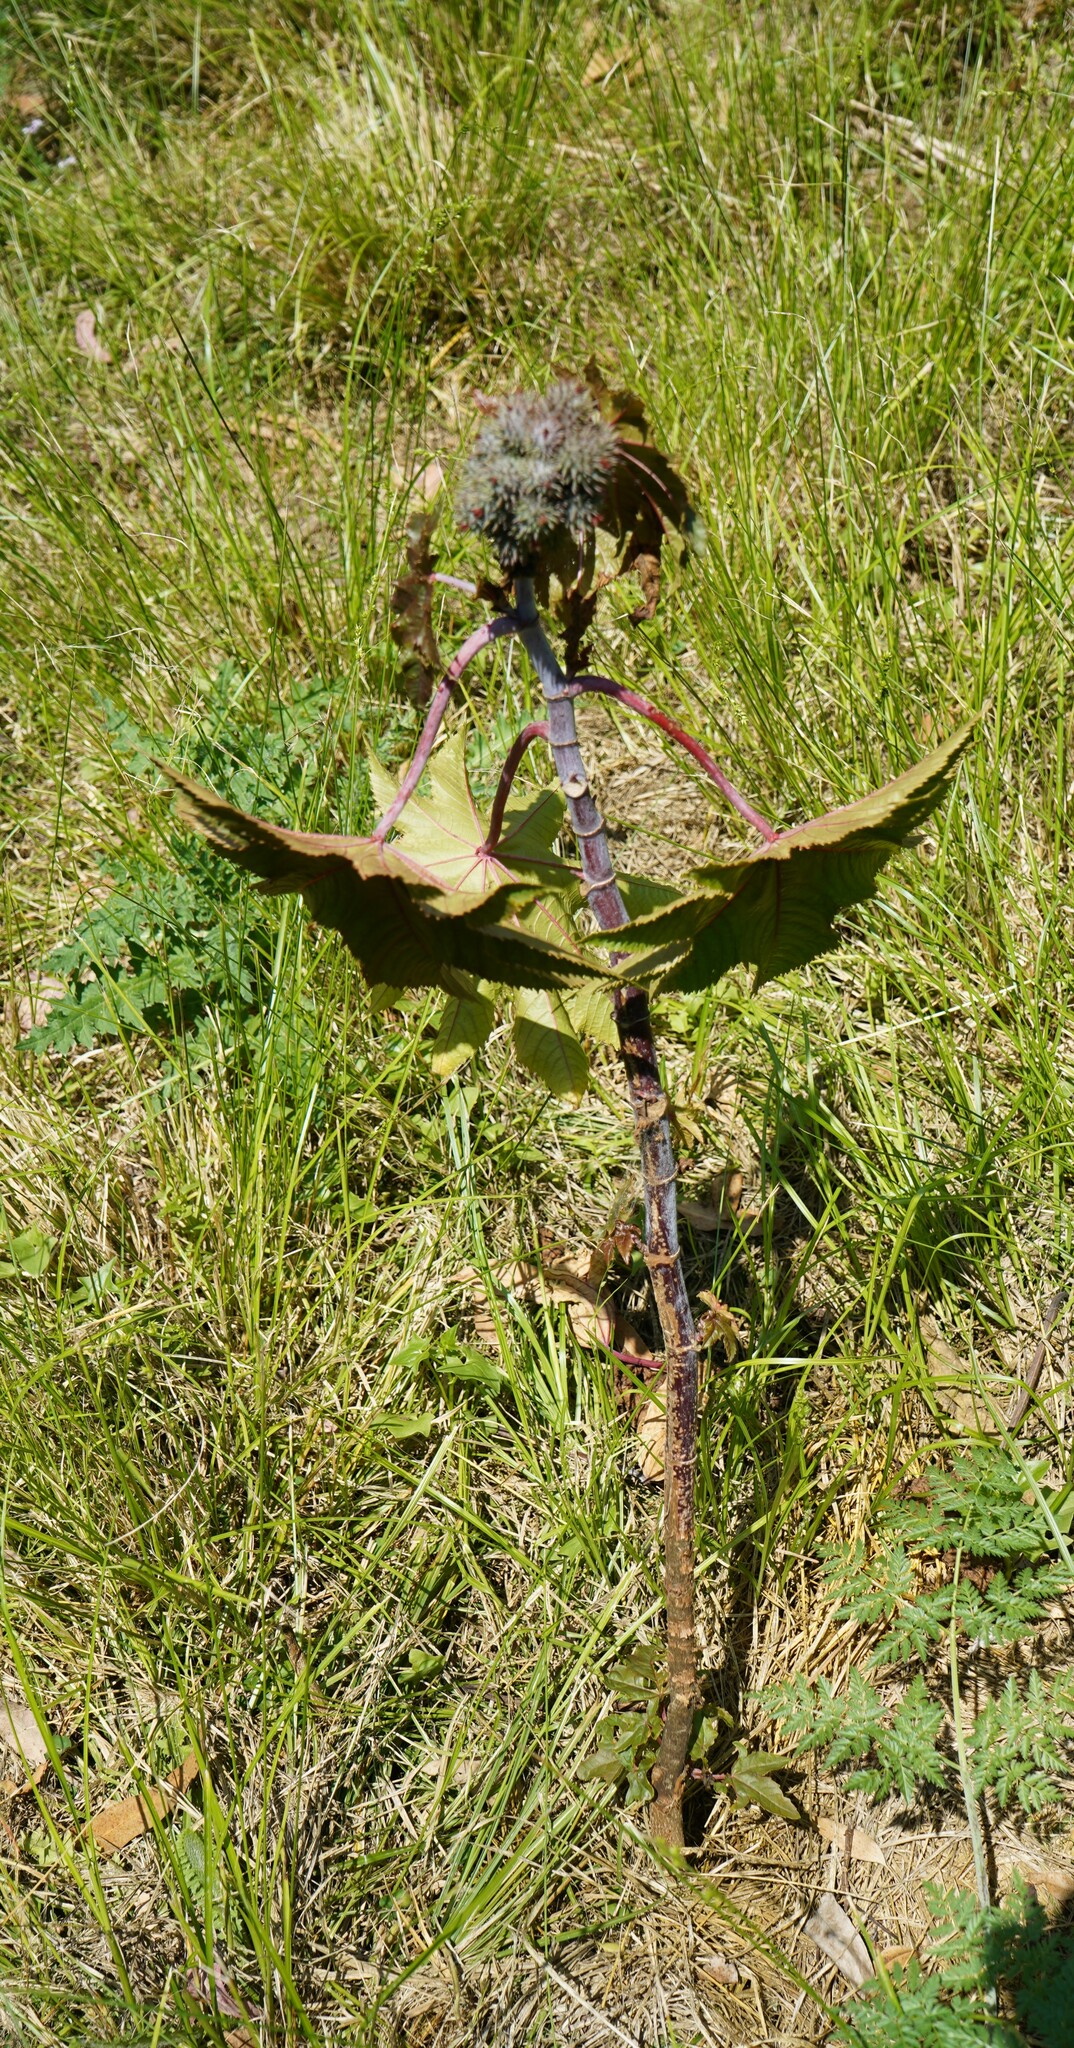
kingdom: Plantae
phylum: Tracheophyta
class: Magnoliopsida
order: Malpighiales
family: Euphorbiaceae
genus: Ricinus
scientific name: Ricinus communis
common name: Castor-oil-plant
